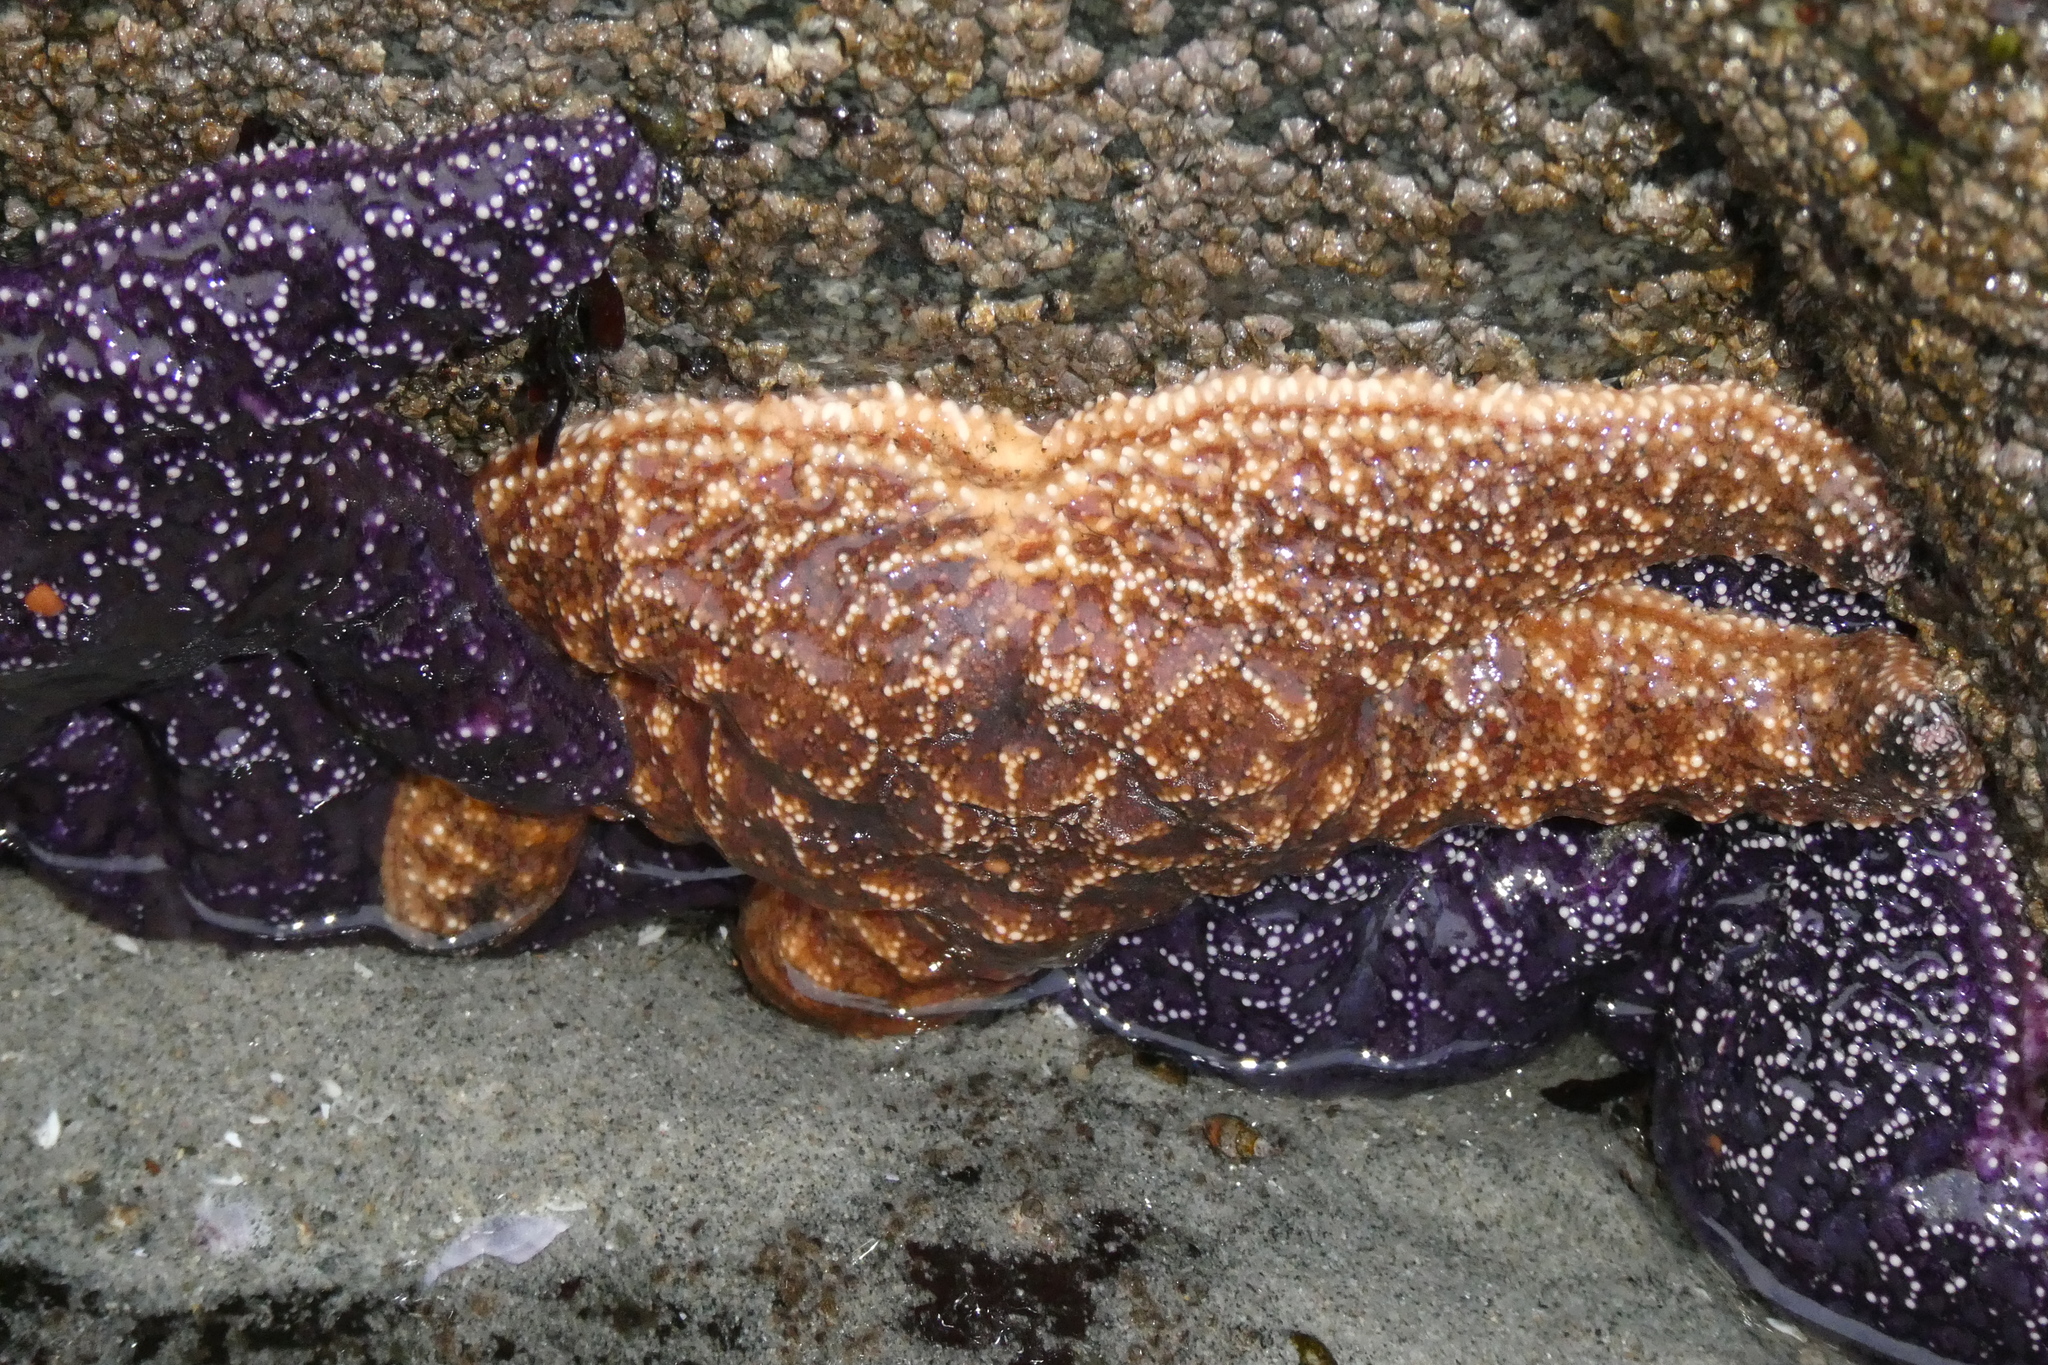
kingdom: Animalia
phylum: Echinodermata
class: Asteroidea
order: Forcipulatida
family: Asteriidae
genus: Pisaster
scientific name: Pisaster ochraceus
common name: Ochre stars
